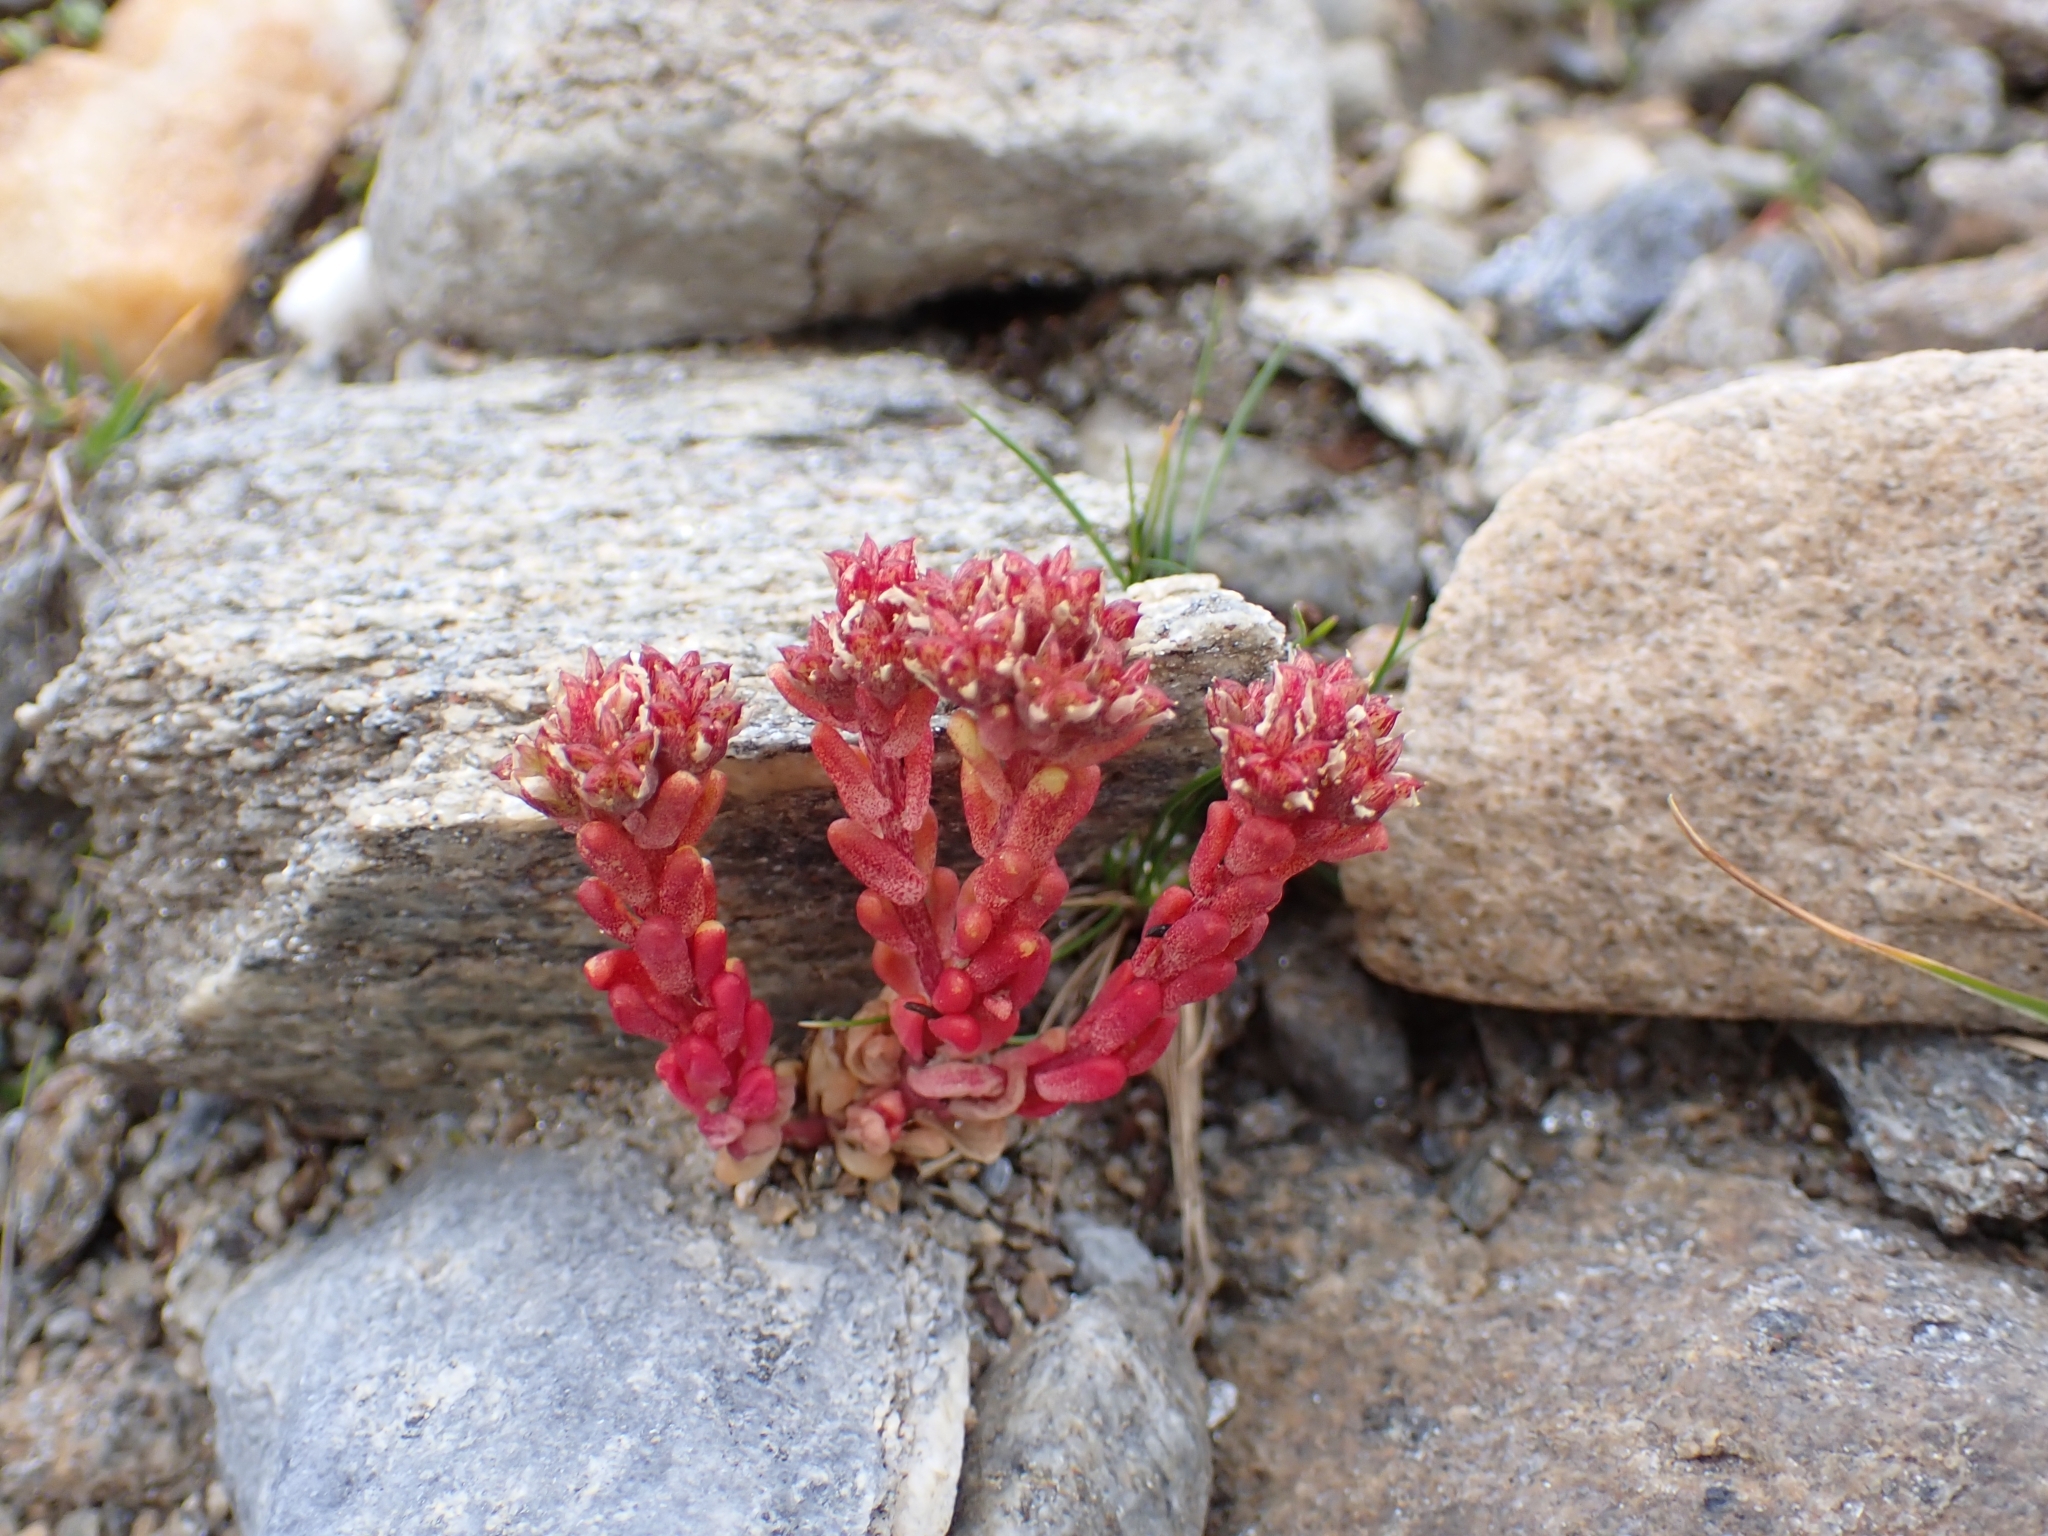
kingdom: Plantae
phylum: Tracheophyta
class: Magnoliopsida
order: Saxifragales
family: Crassulaceae
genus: Sedum
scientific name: Sedum atratum
